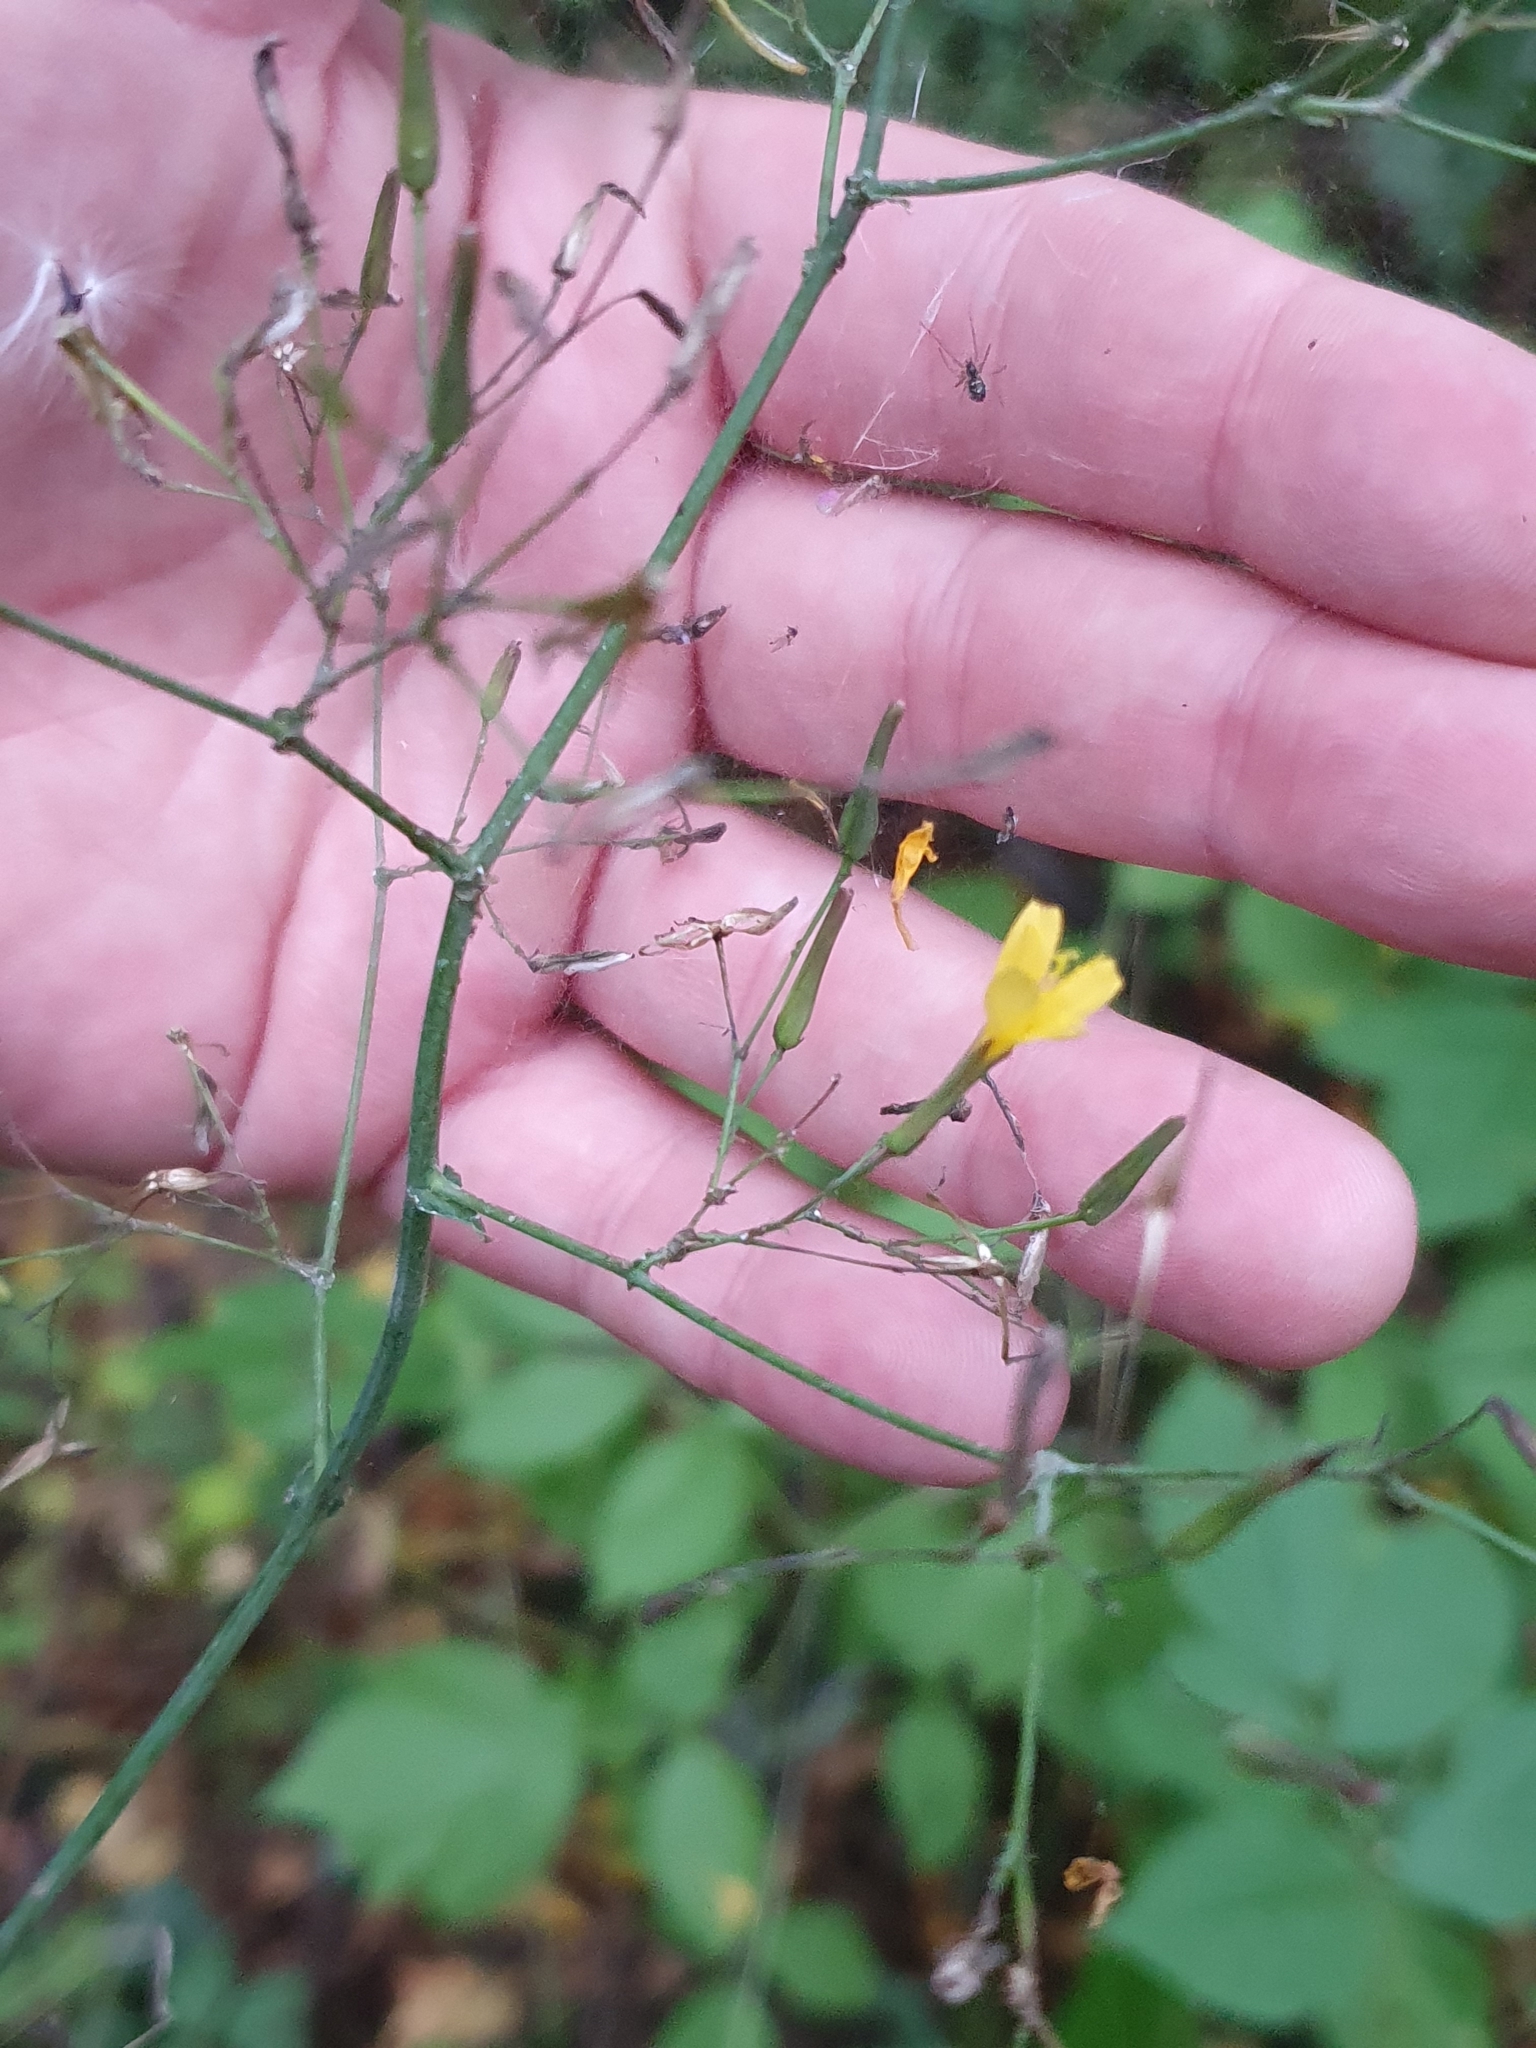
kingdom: Plantae
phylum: Tracheophyta
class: Magnoliopsida
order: Asterales
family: Asteraceae
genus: Mycelis
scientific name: Mycelis muralis
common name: Wall lettuce
